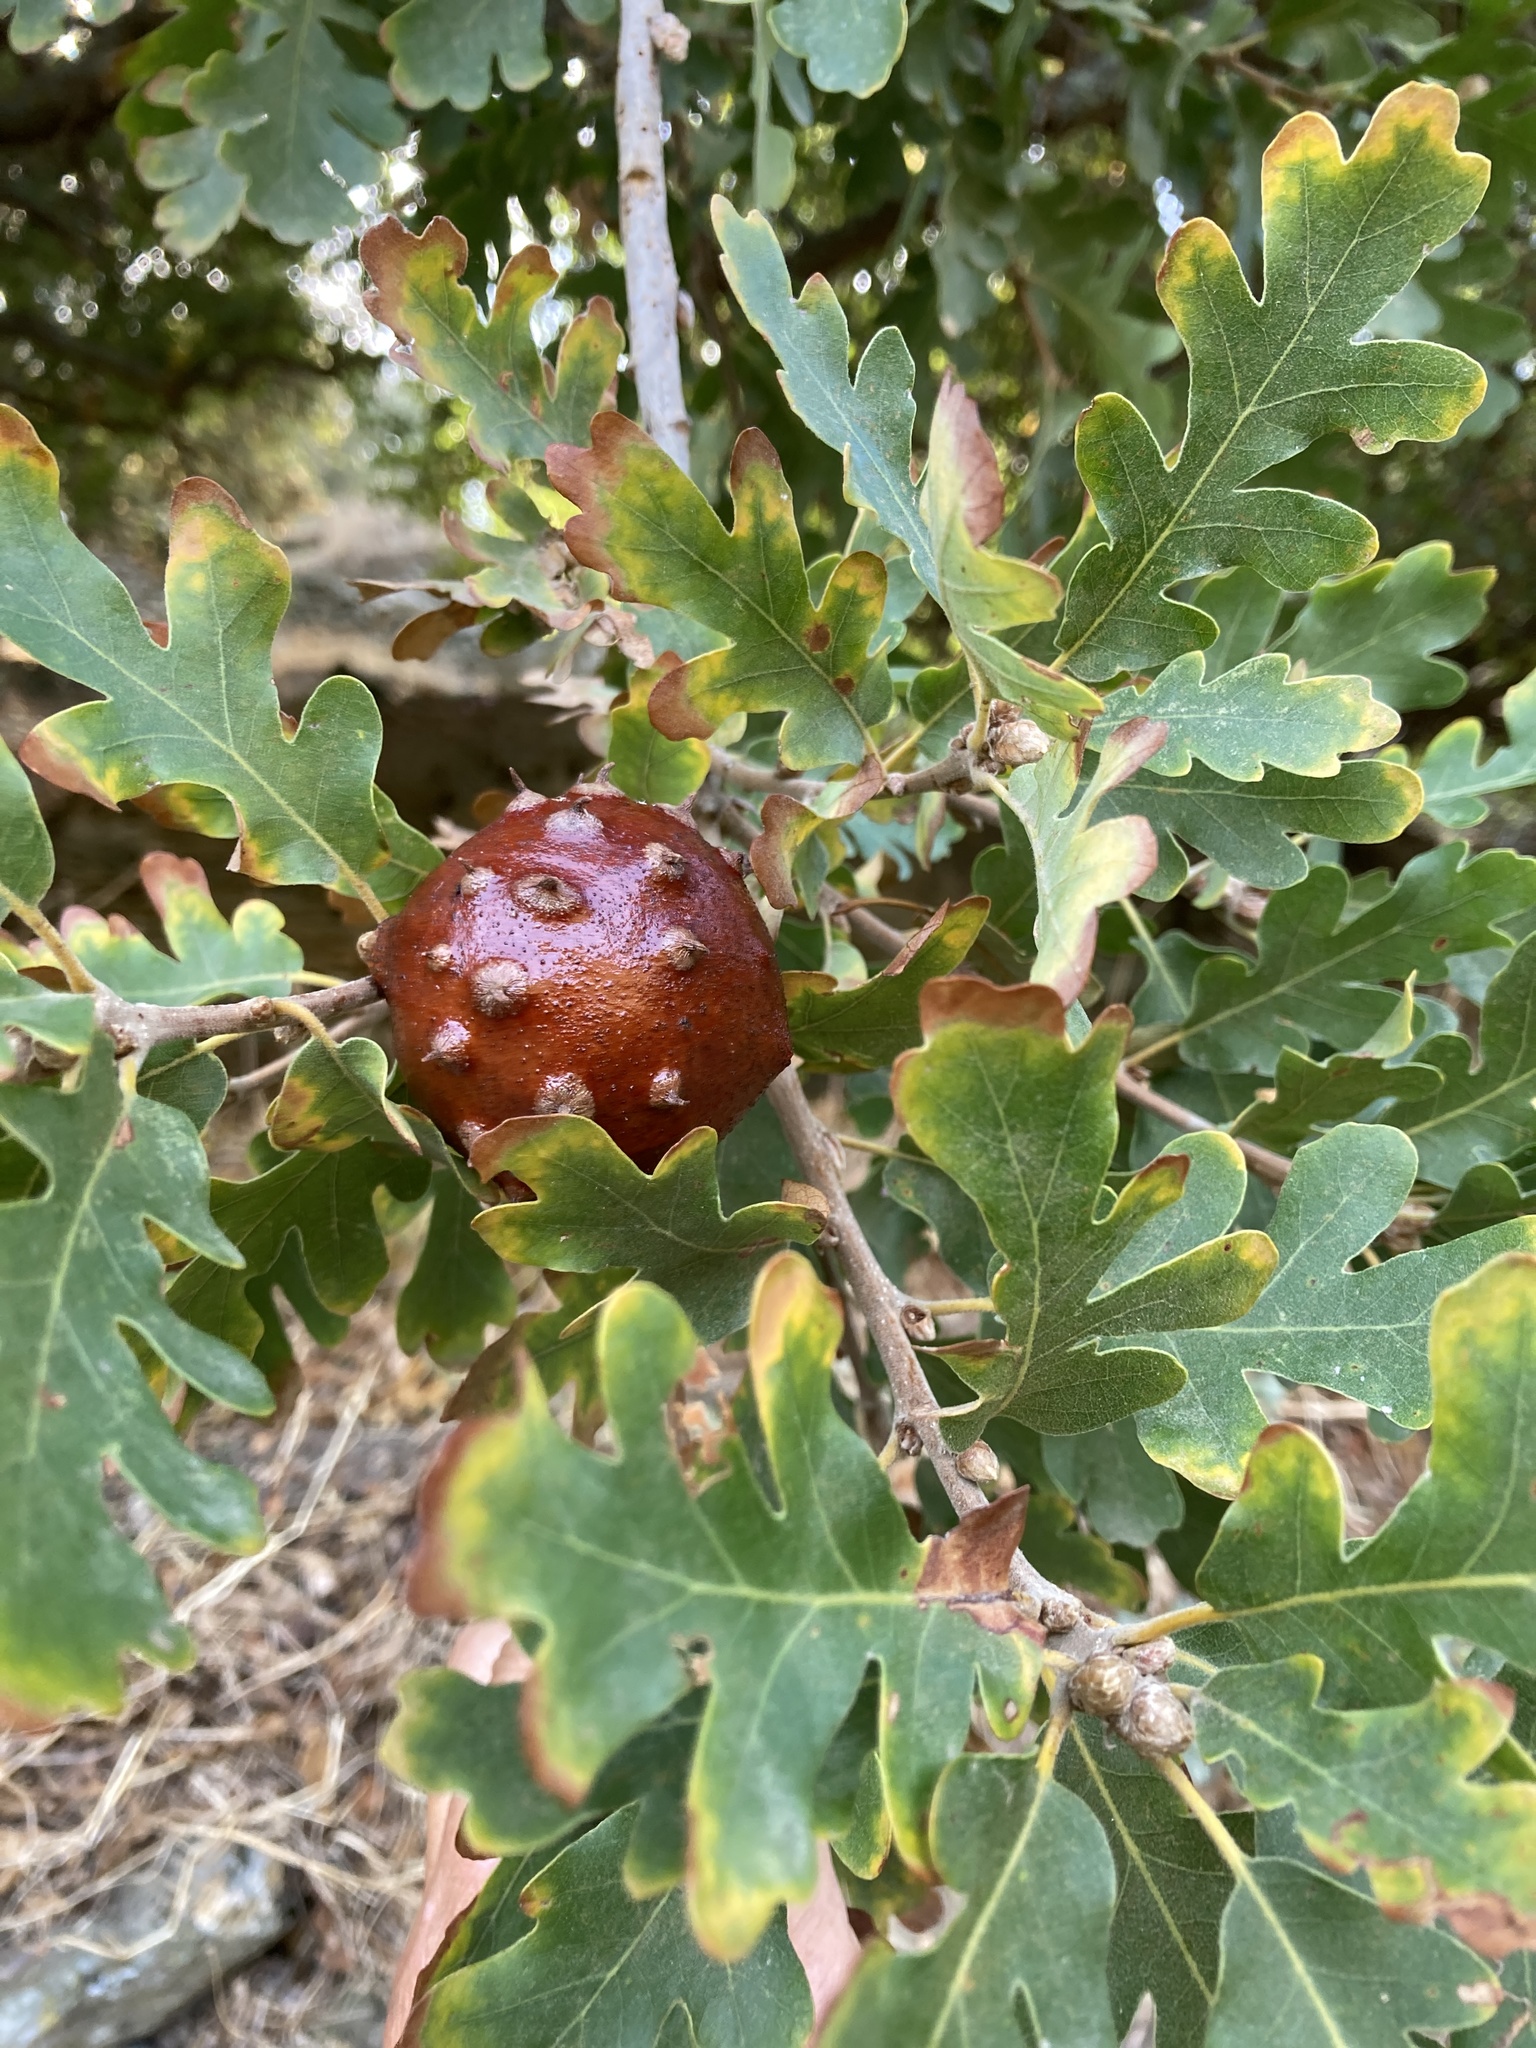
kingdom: Plantae
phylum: Tracheophyta
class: Magnoliopsida
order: Fagales
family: Fagaceae
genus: Quercus
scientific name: Quercus pubescens
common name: Downy oak
